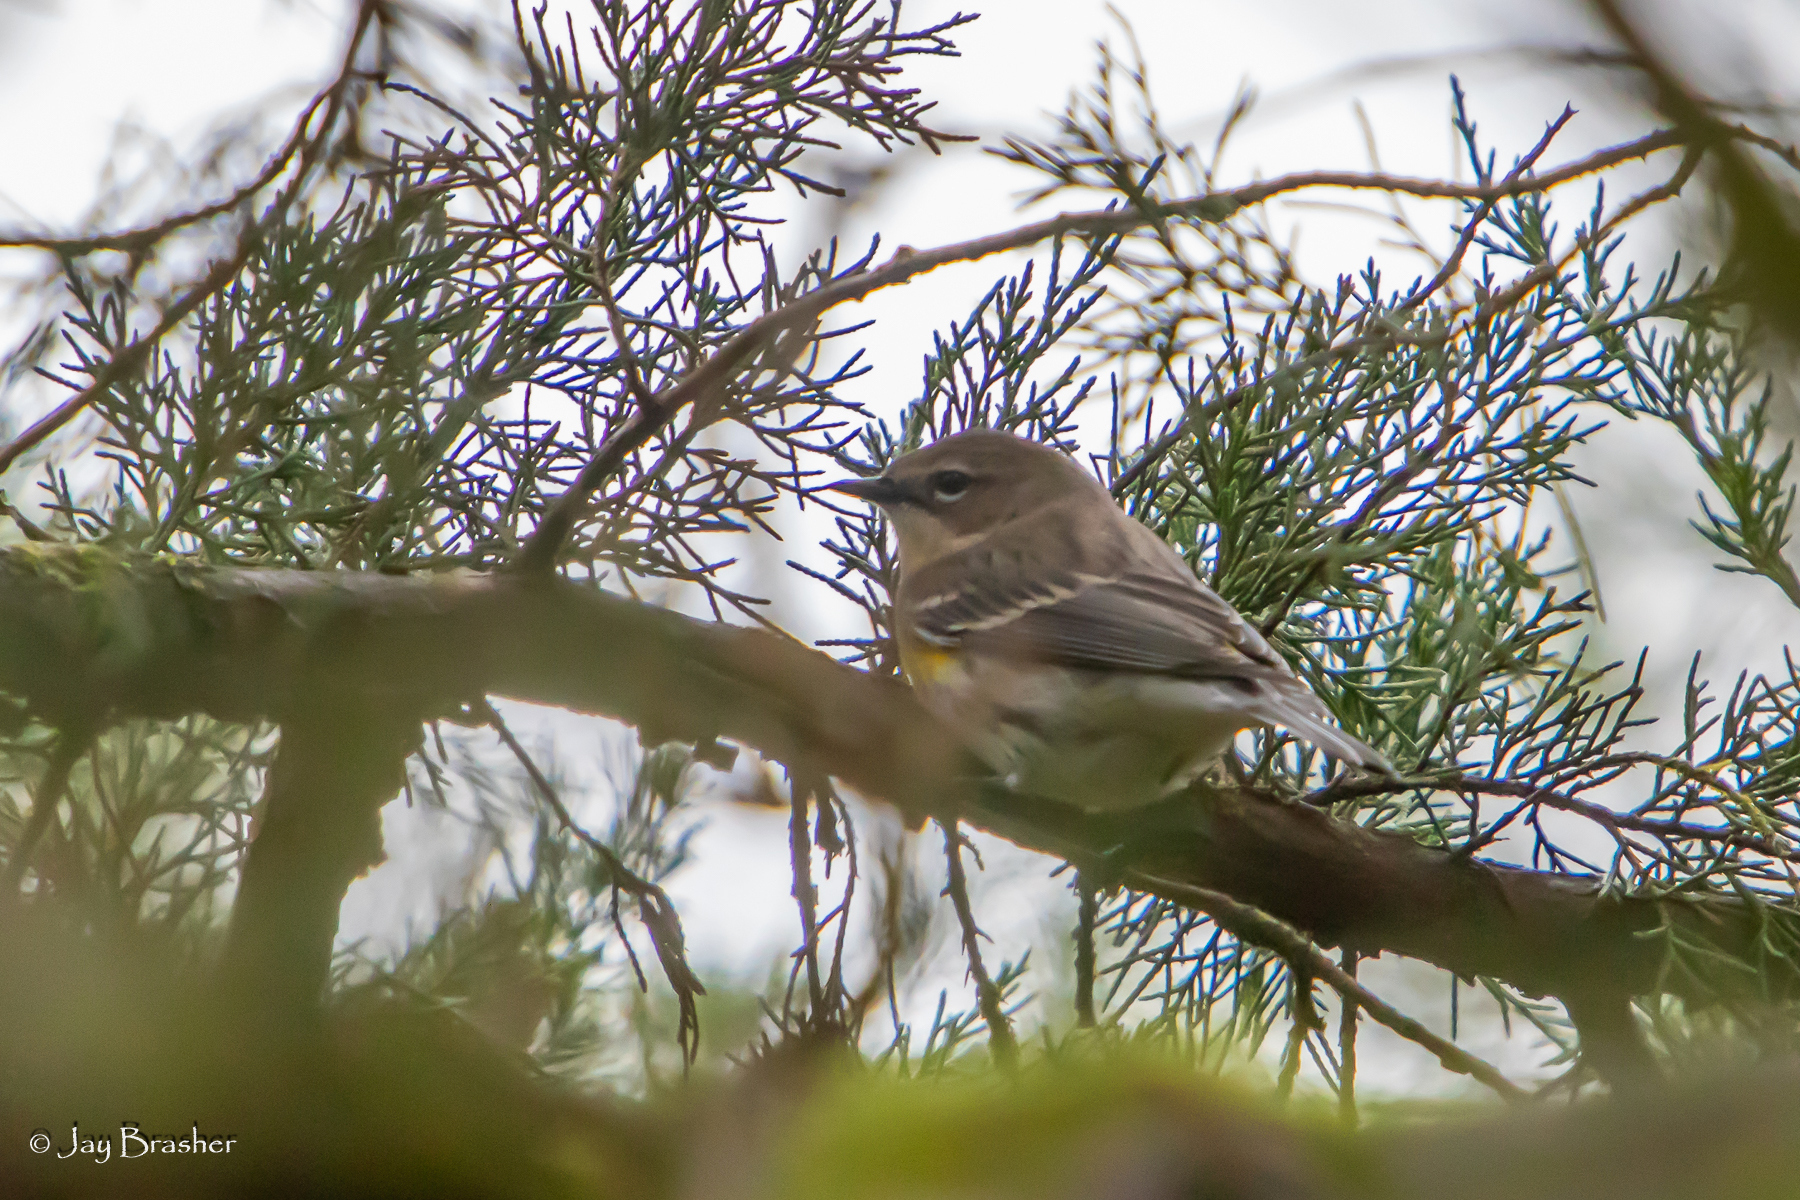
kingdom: Animalia
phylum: Chordata
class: Aves
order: Passeriformes
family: Parulidae
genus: Setophaga
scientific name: Setophaga coronata
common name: Myrtle warbler
